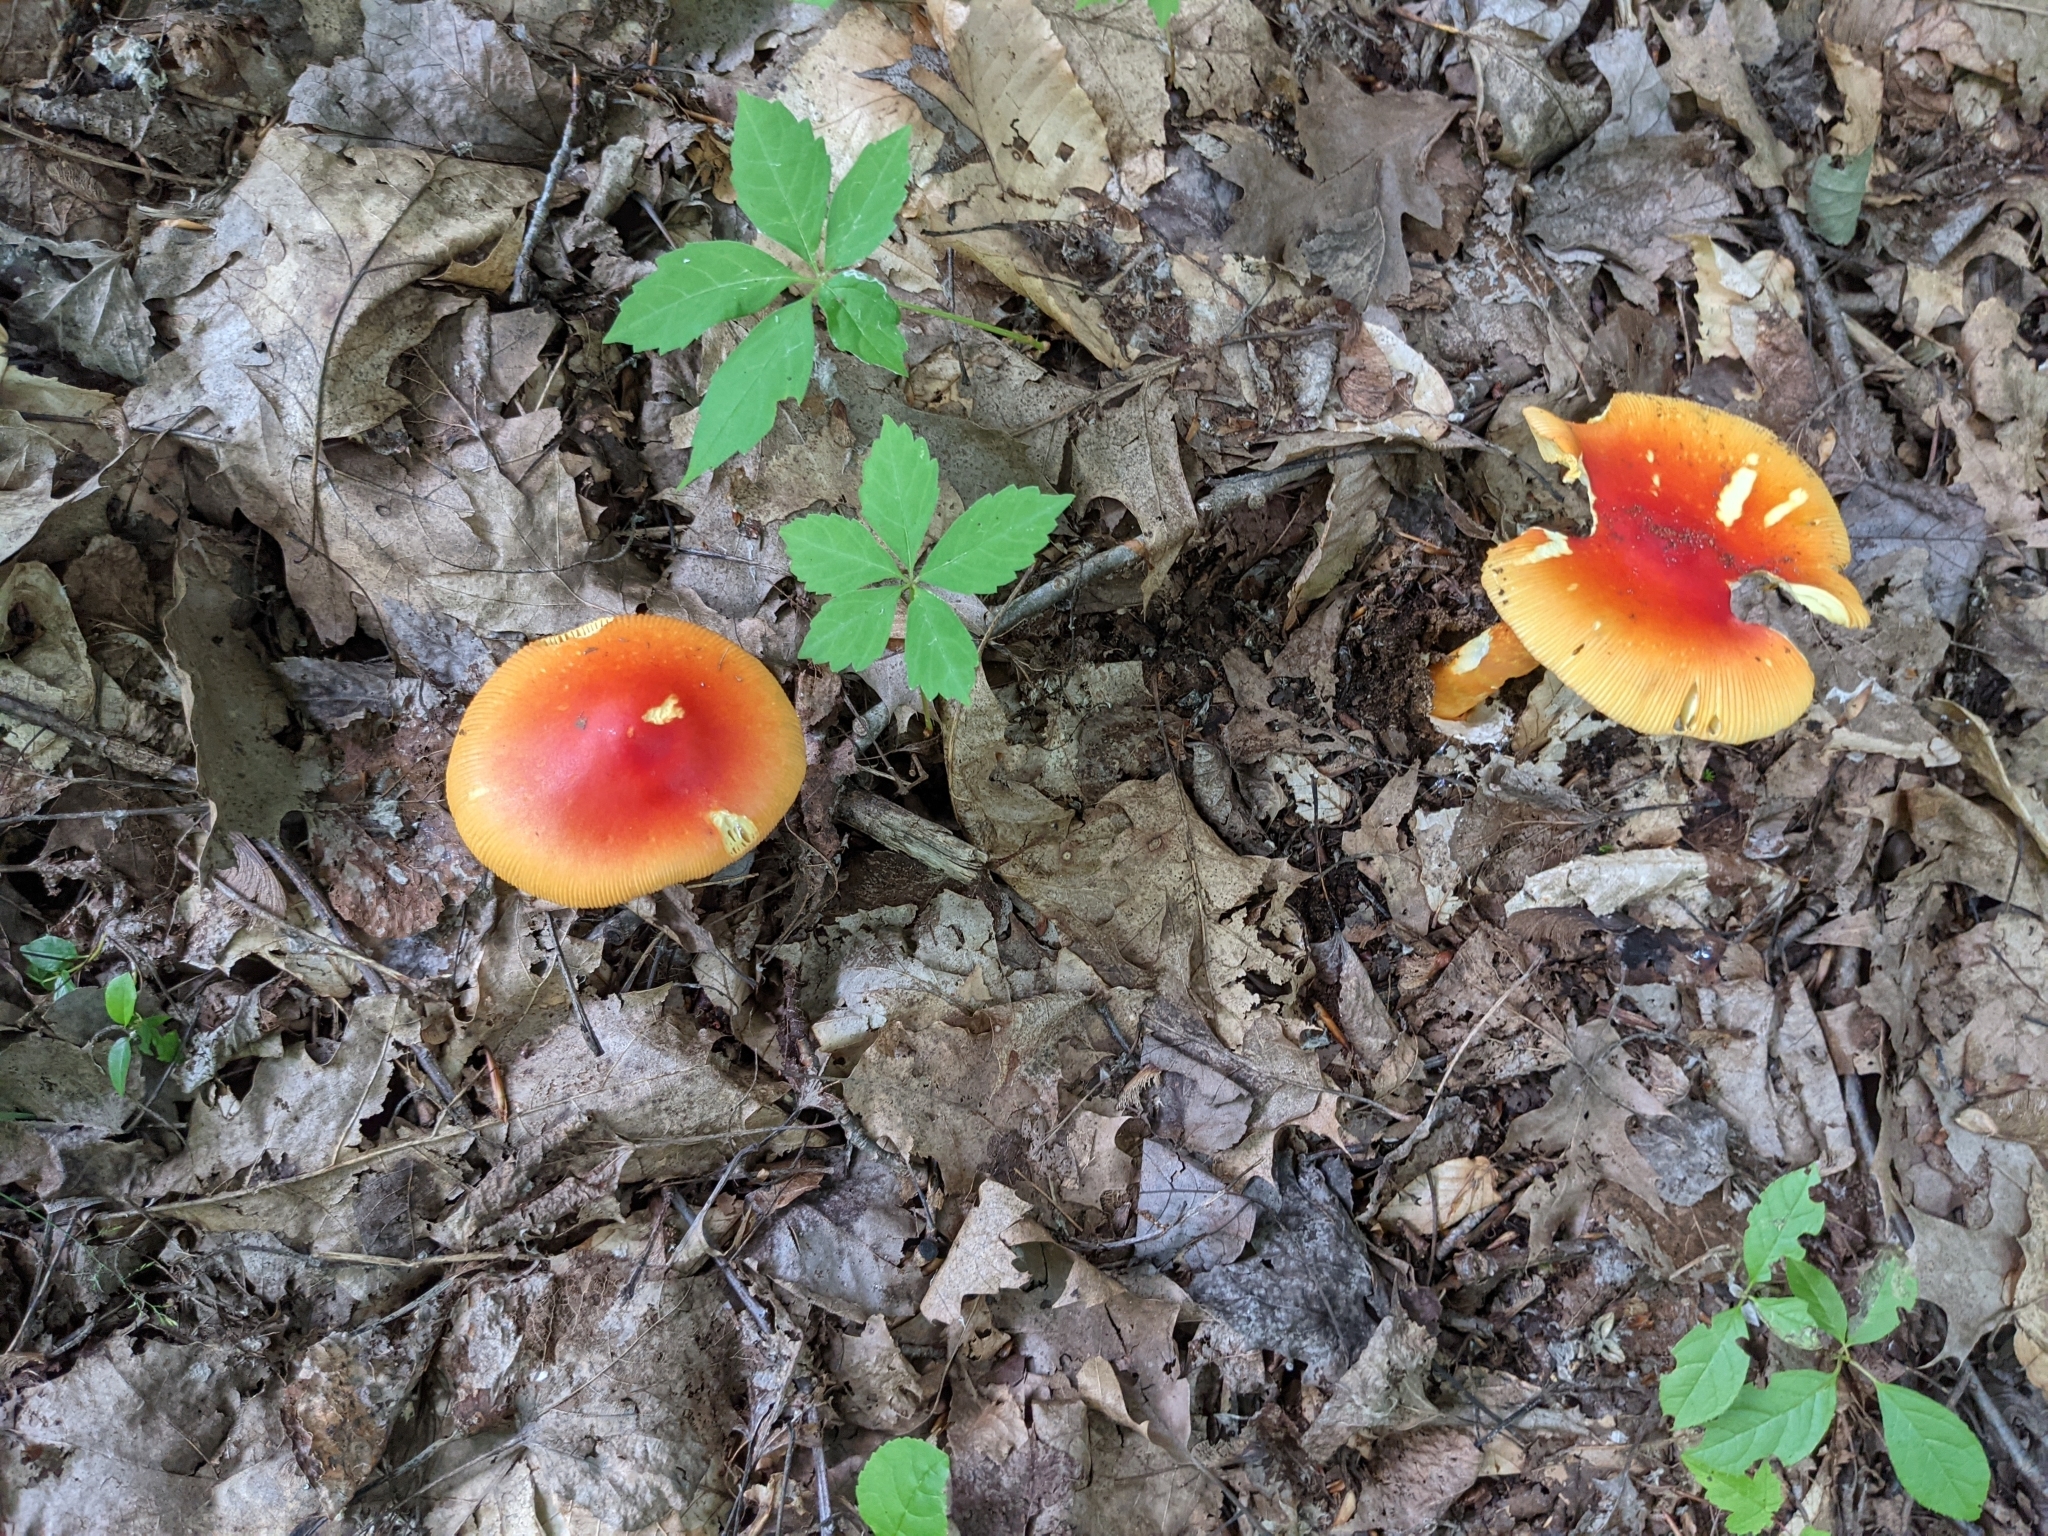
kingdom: Fungi
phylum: Basidiomycota
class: Agaricomycetes
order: Agaricales
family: Amanitaceae
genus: Amanita
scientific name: Amanita jacksonii
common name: Jackson's slender caesar
